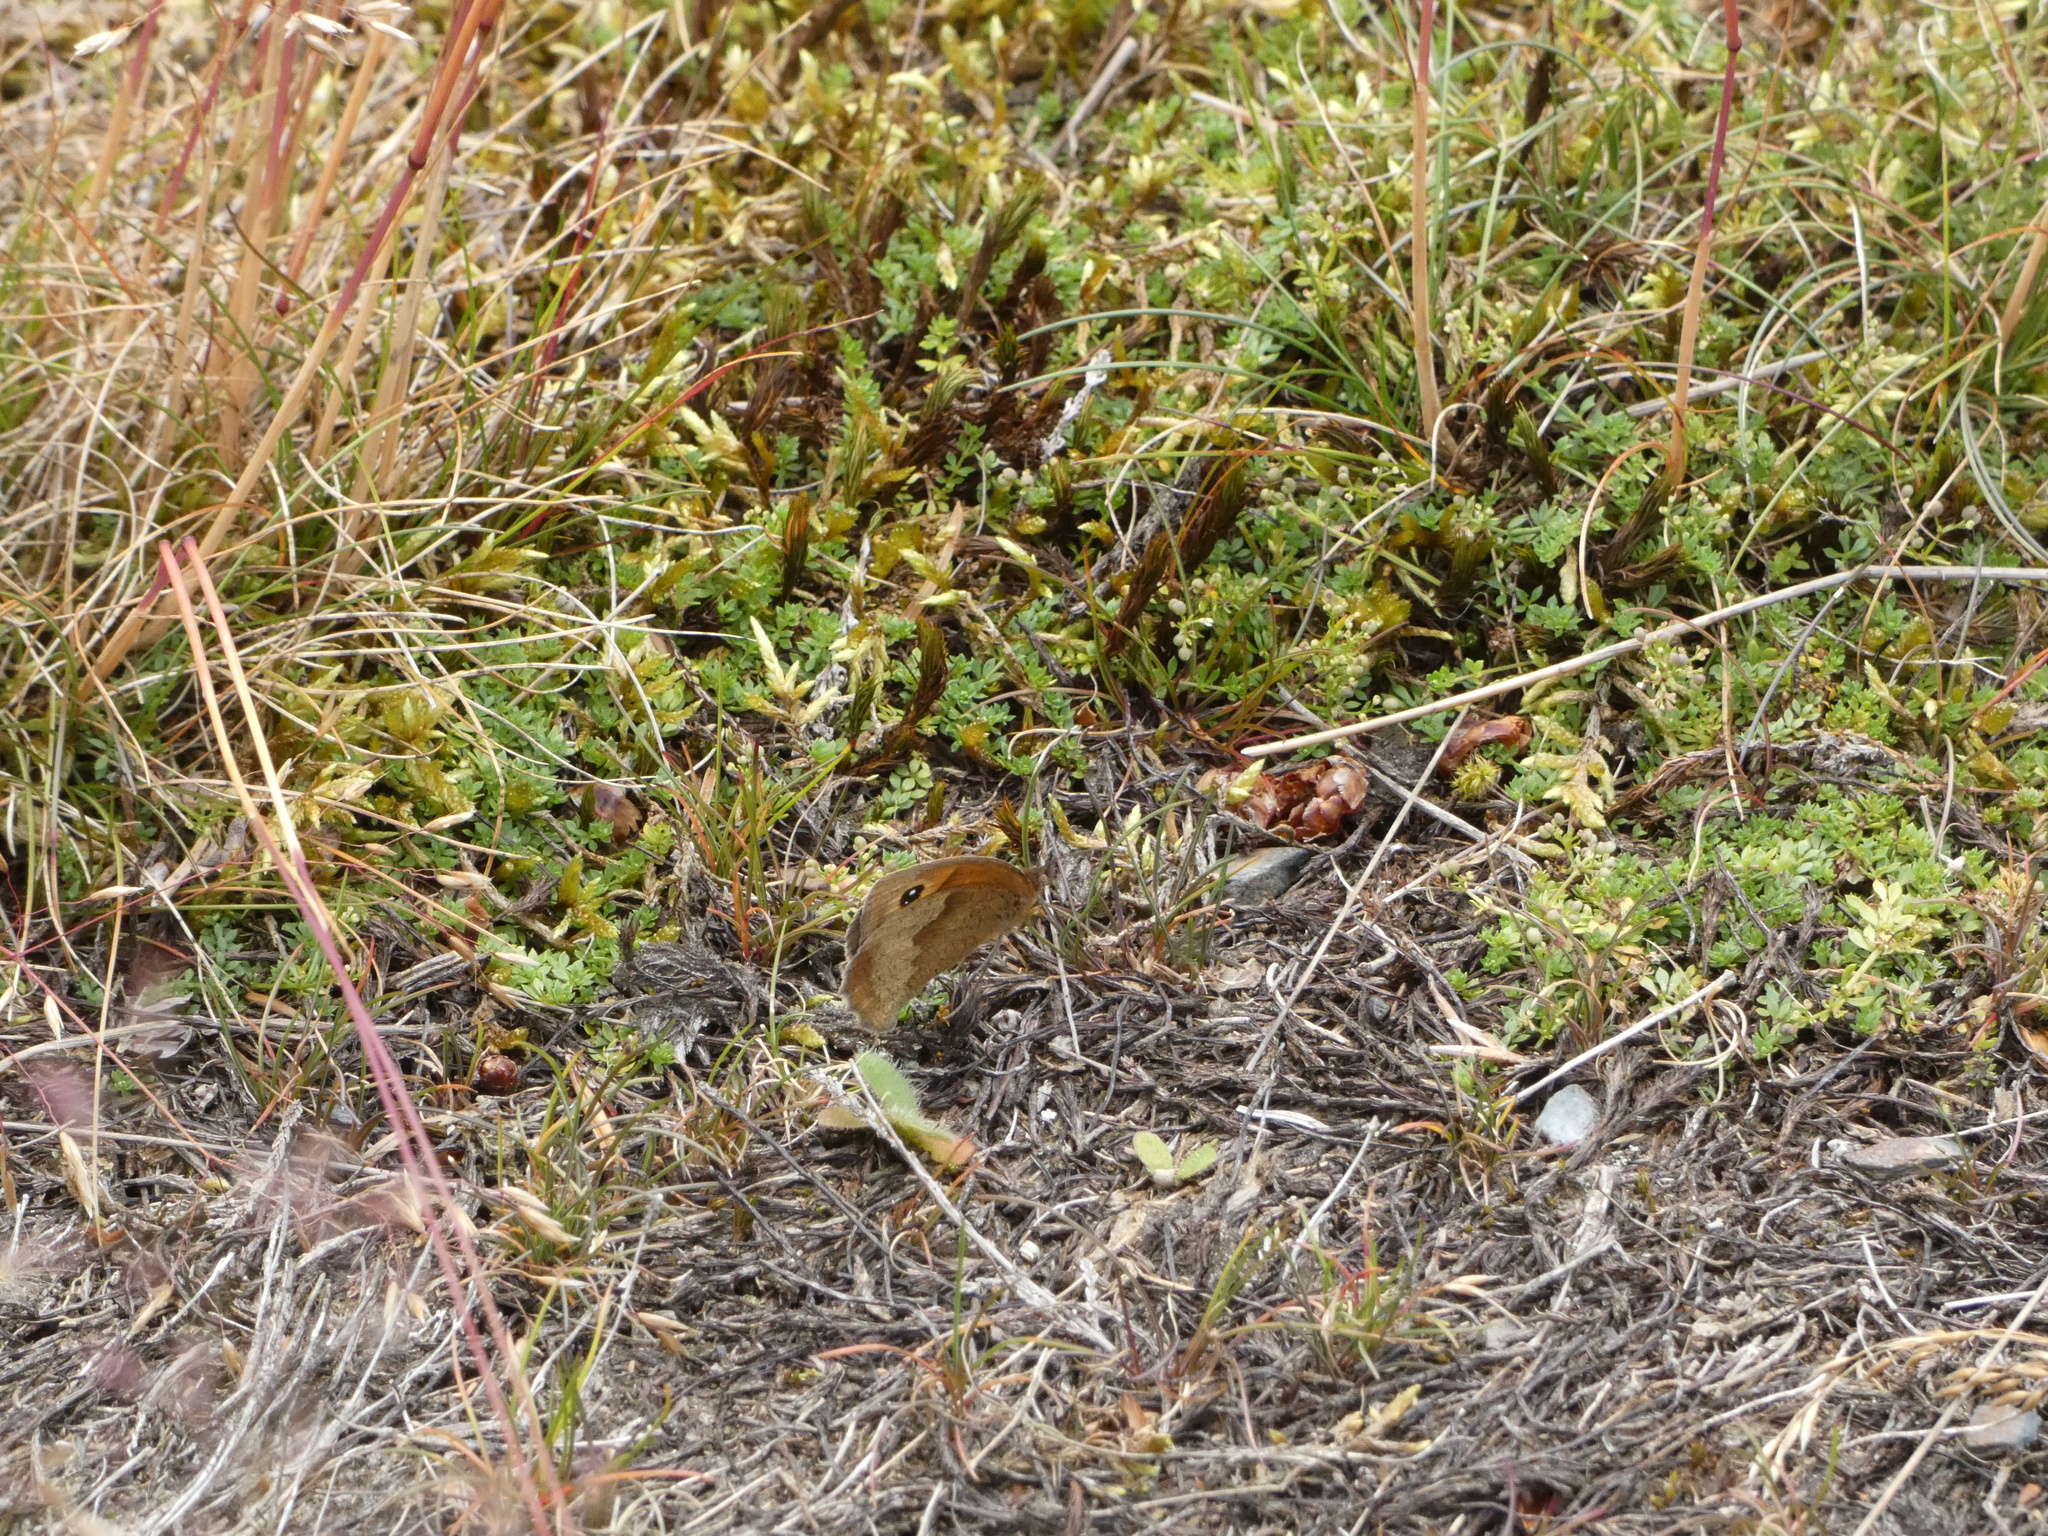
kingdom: Animalia
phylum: Arthropoda
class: Insecta
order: Lepidoptera
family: Nymphalidae
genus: Maniola
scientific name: Maniola jurtina
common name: Meadow brown
